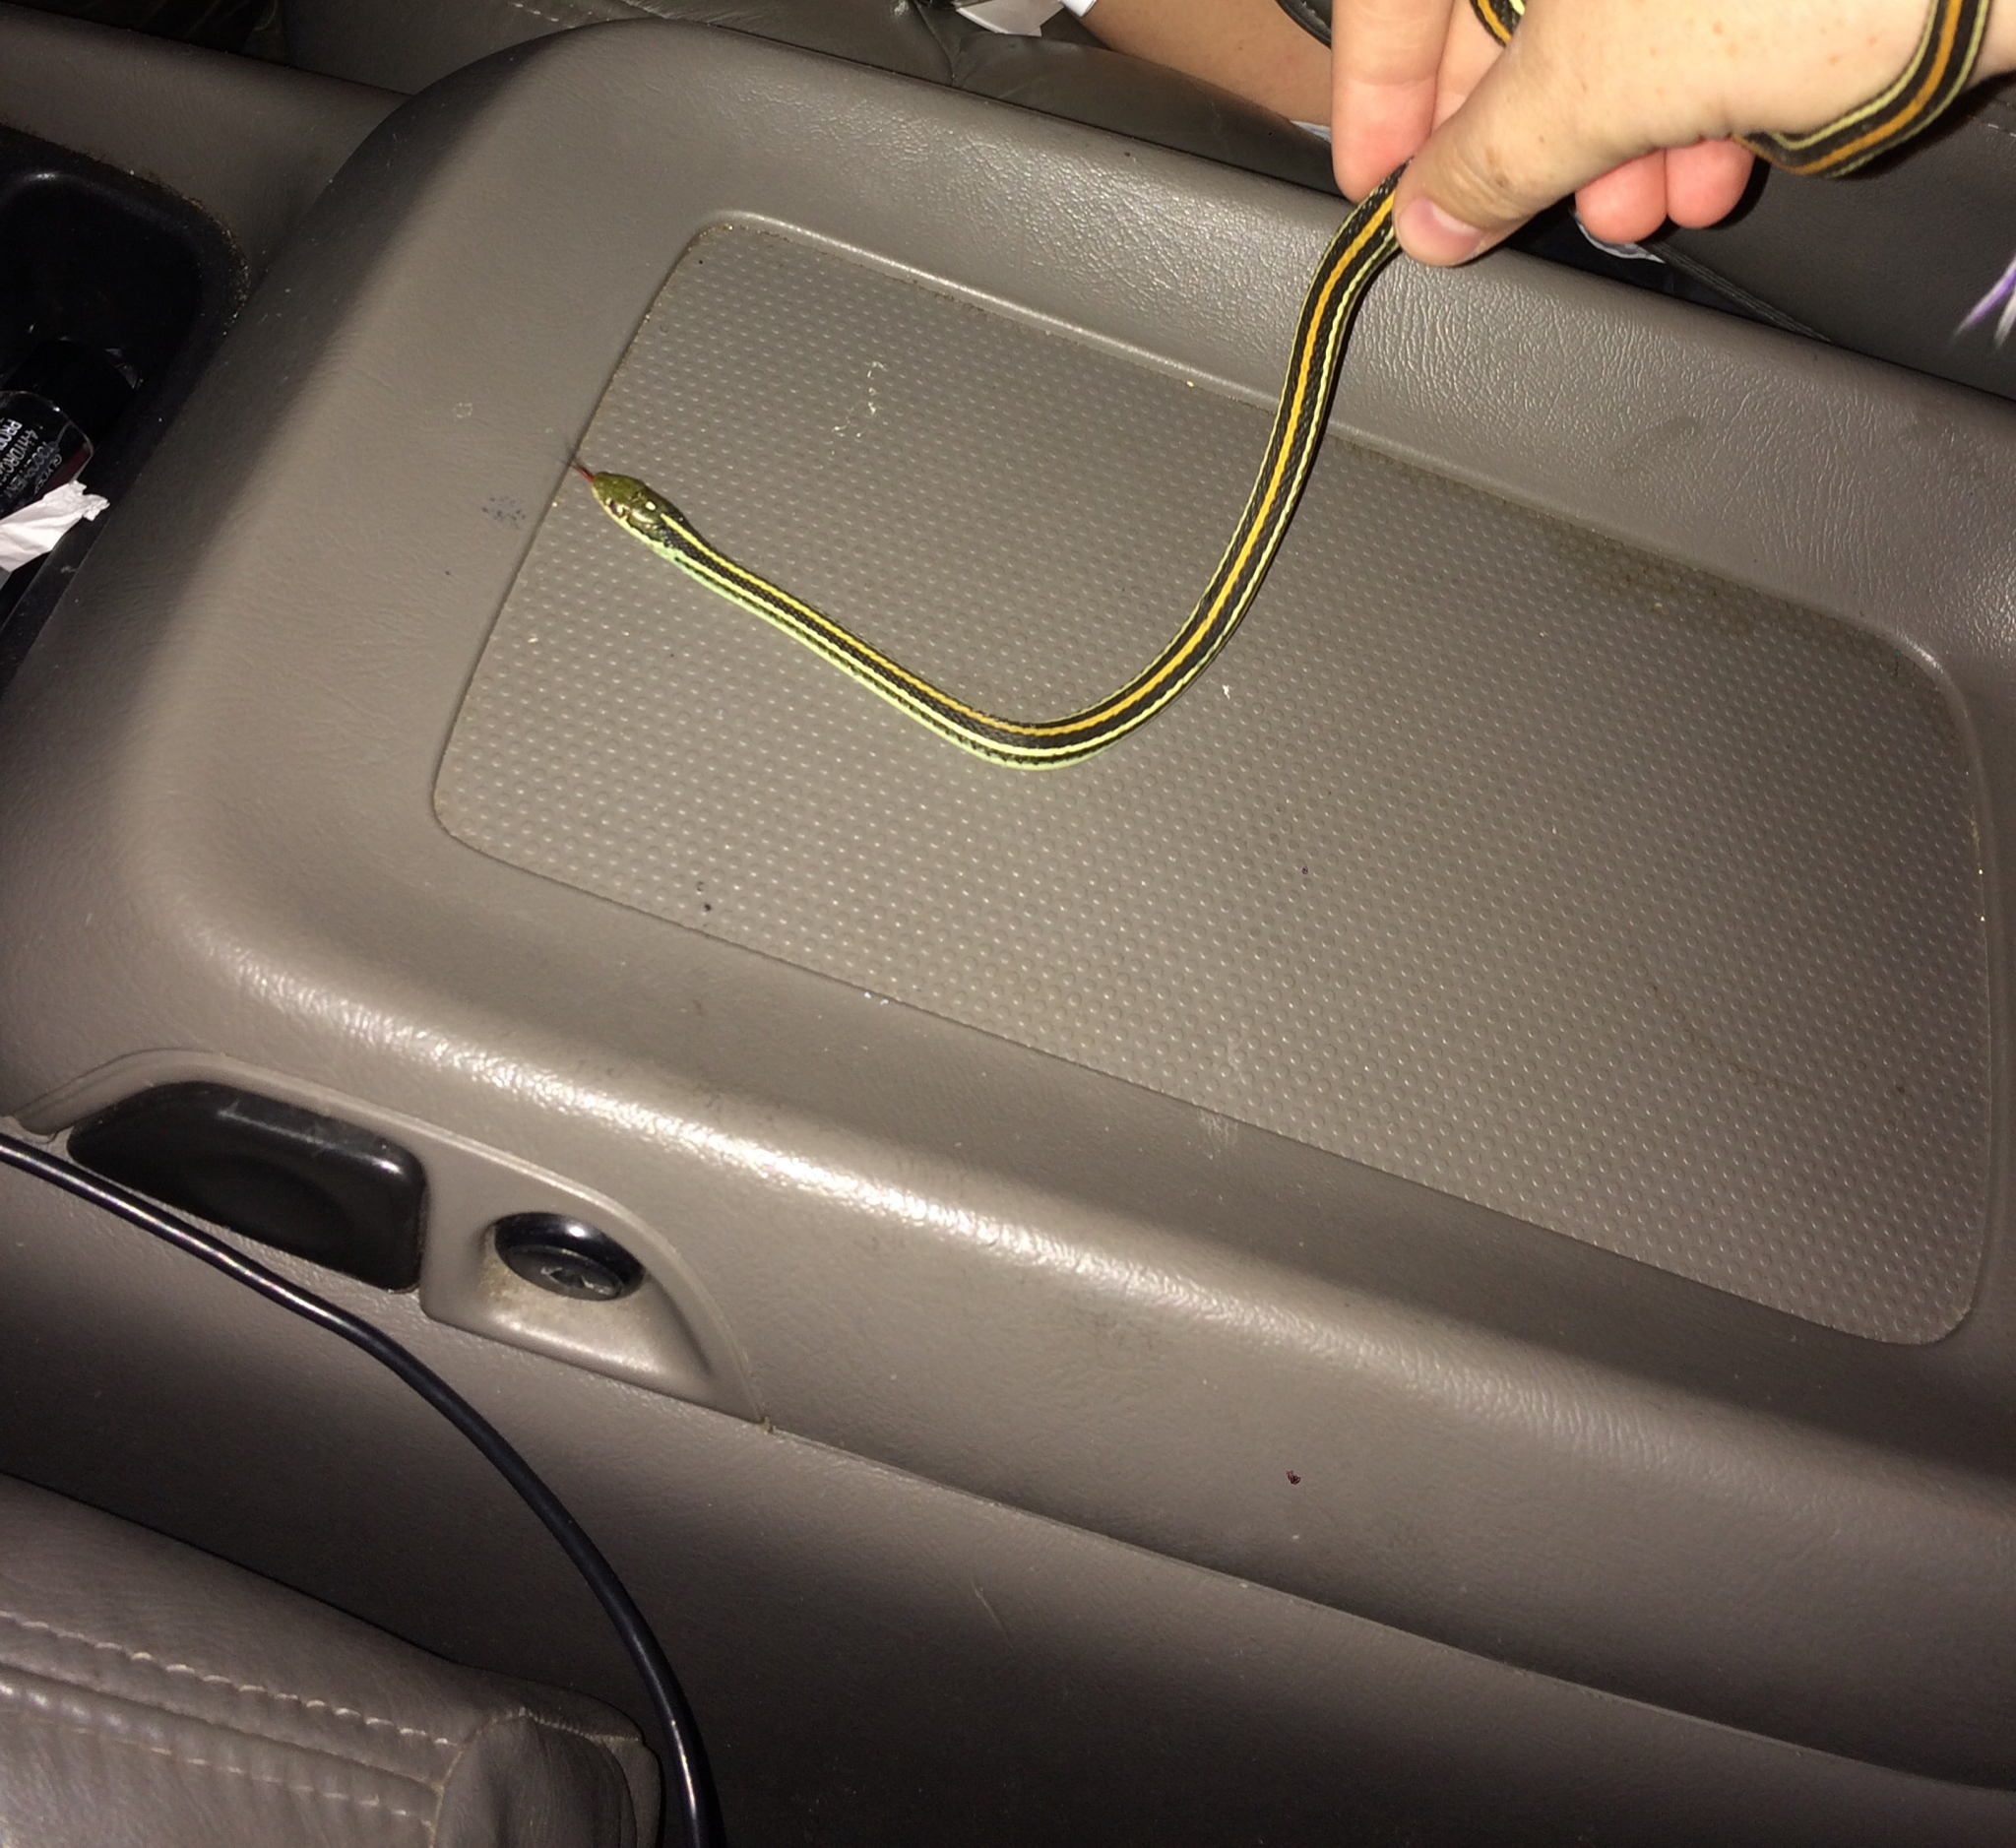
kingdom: Animalia
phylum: Chordata
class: Squamata
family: Colubridae
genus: Thamnophis
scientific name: Thamnophis proximus
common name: Western ribbon snake
